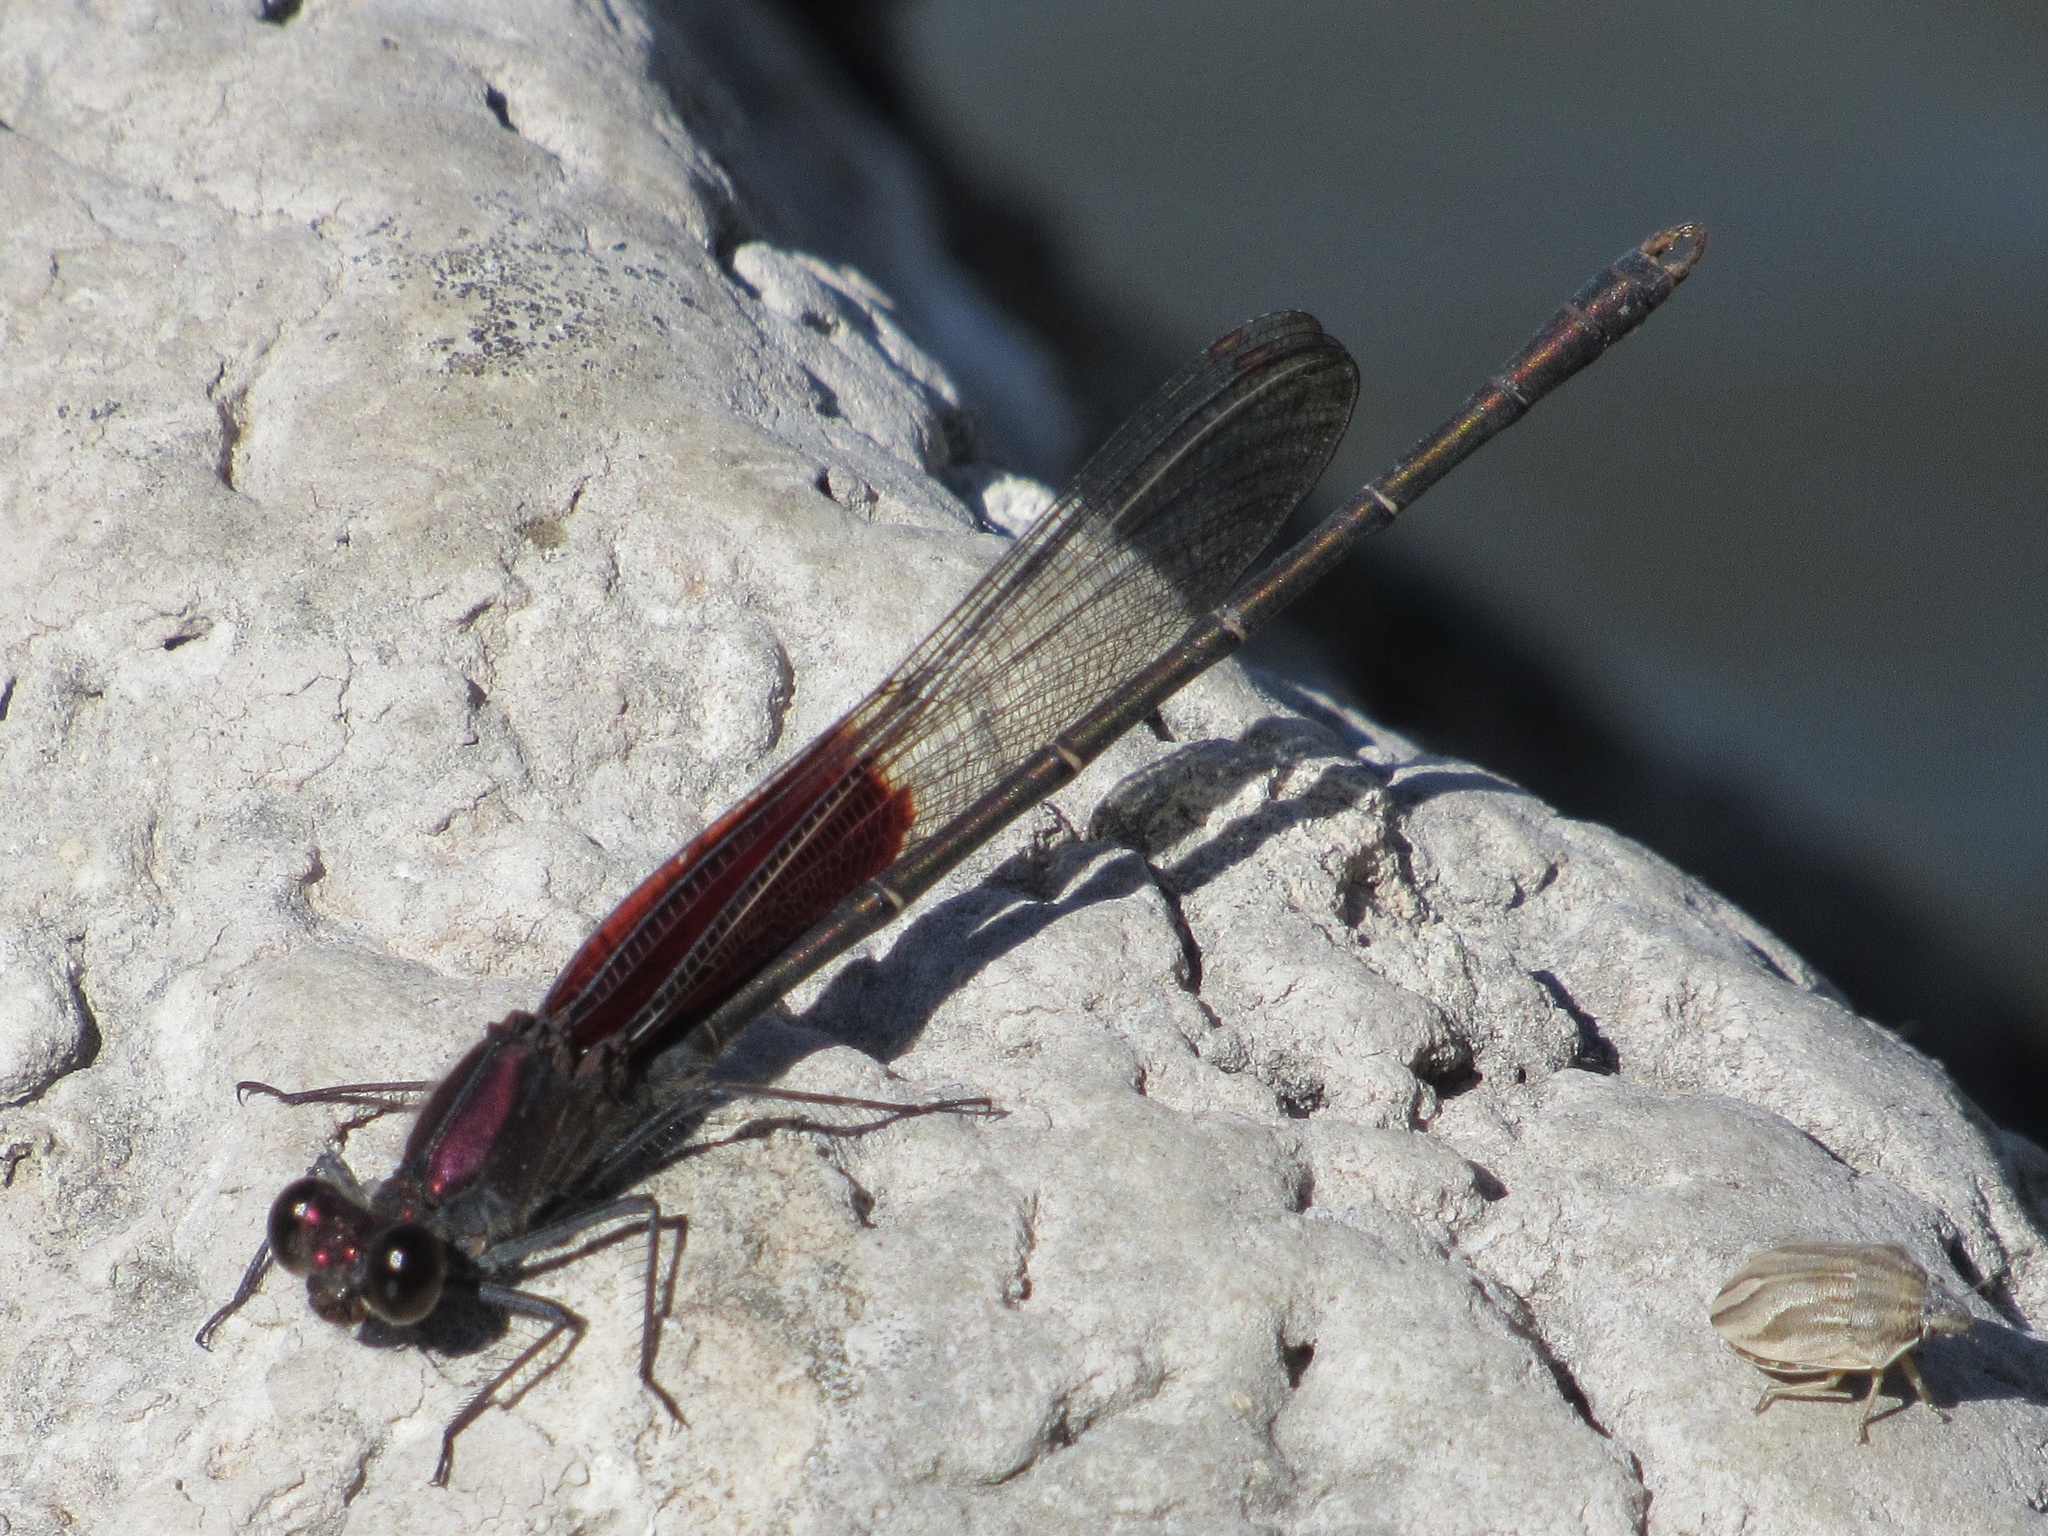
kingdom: Animalia
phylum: Arthropoda
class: Insecta
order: Odonata
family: Calopterygidae
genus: Hetaerina
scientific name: Hetaerina americana
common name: American rubyspot
